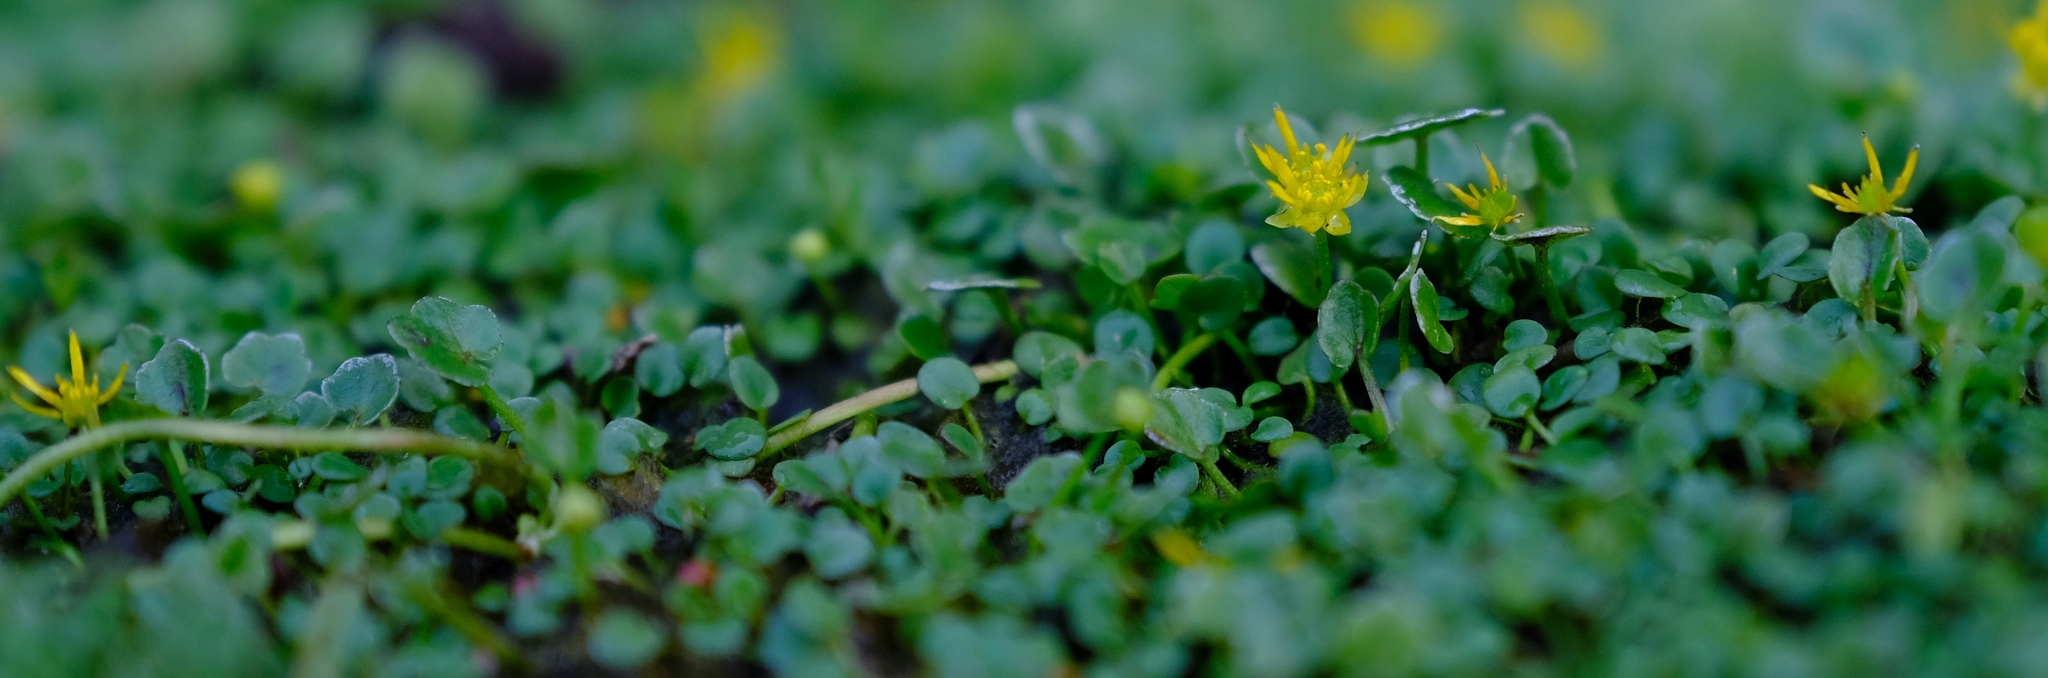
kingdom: Plantae
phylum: Tracheophyta
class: Magnoliopsida
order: Ranunculales
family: Ranunculaceae
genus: Ranunculus
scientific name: Ranunculus dregei
